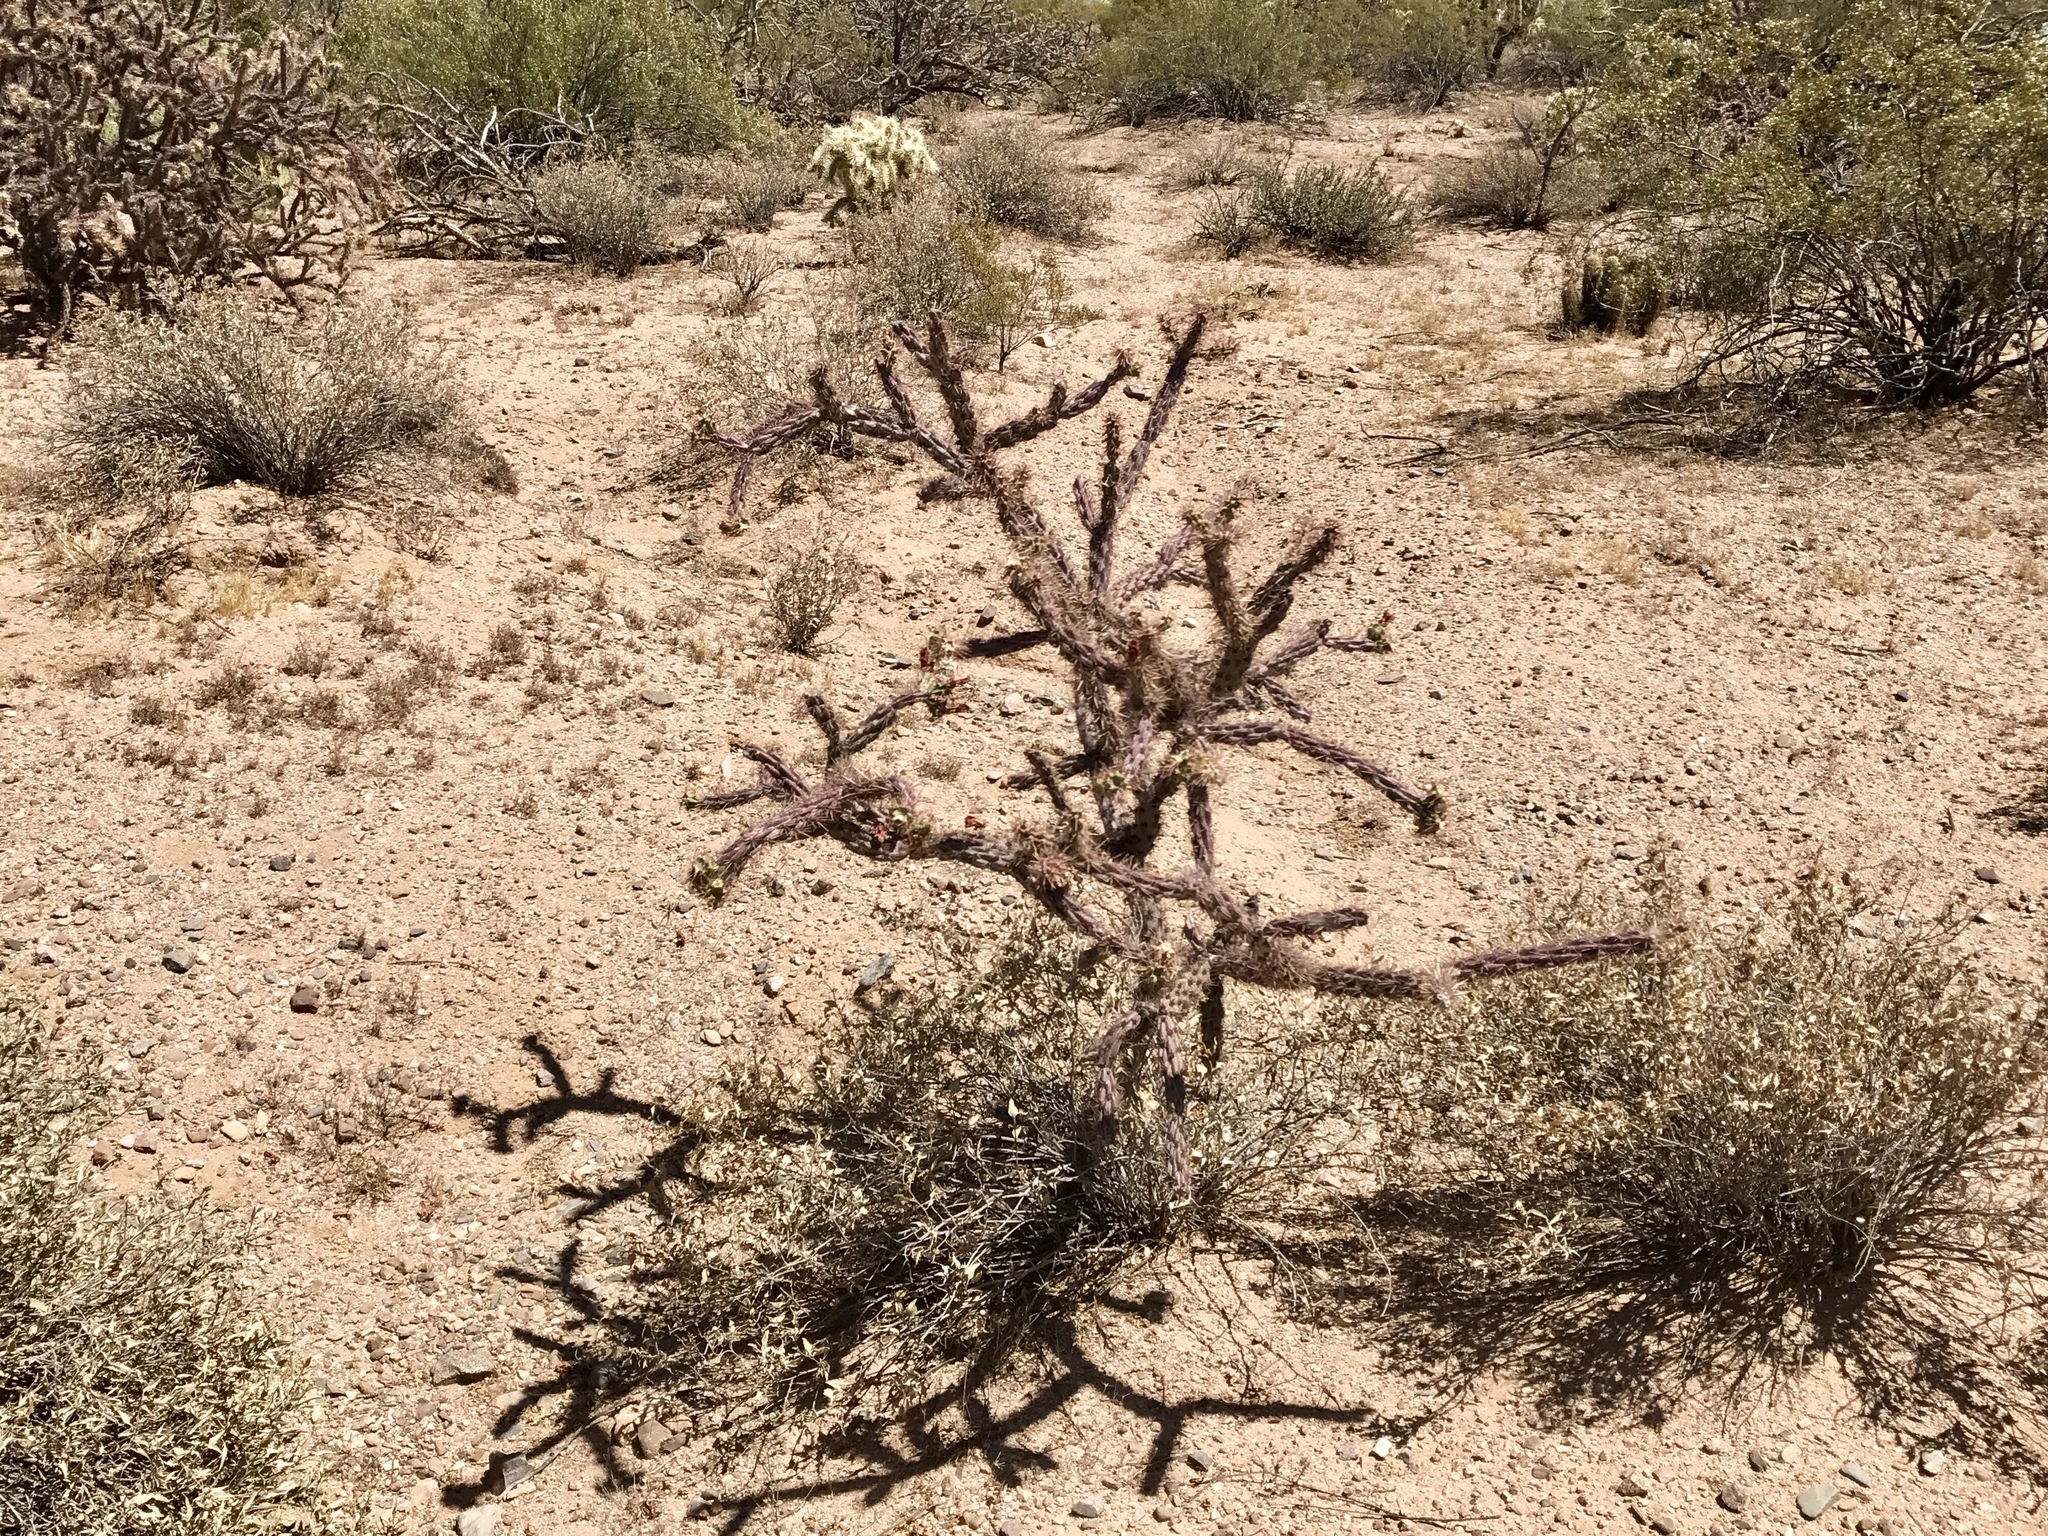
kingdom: Plantae
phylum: Tracheophyta
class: Magnoliopsida
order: Caryophyllales
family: Cactaceae
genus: Cylindropuntia
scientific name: Cylindropuntia thurberi
